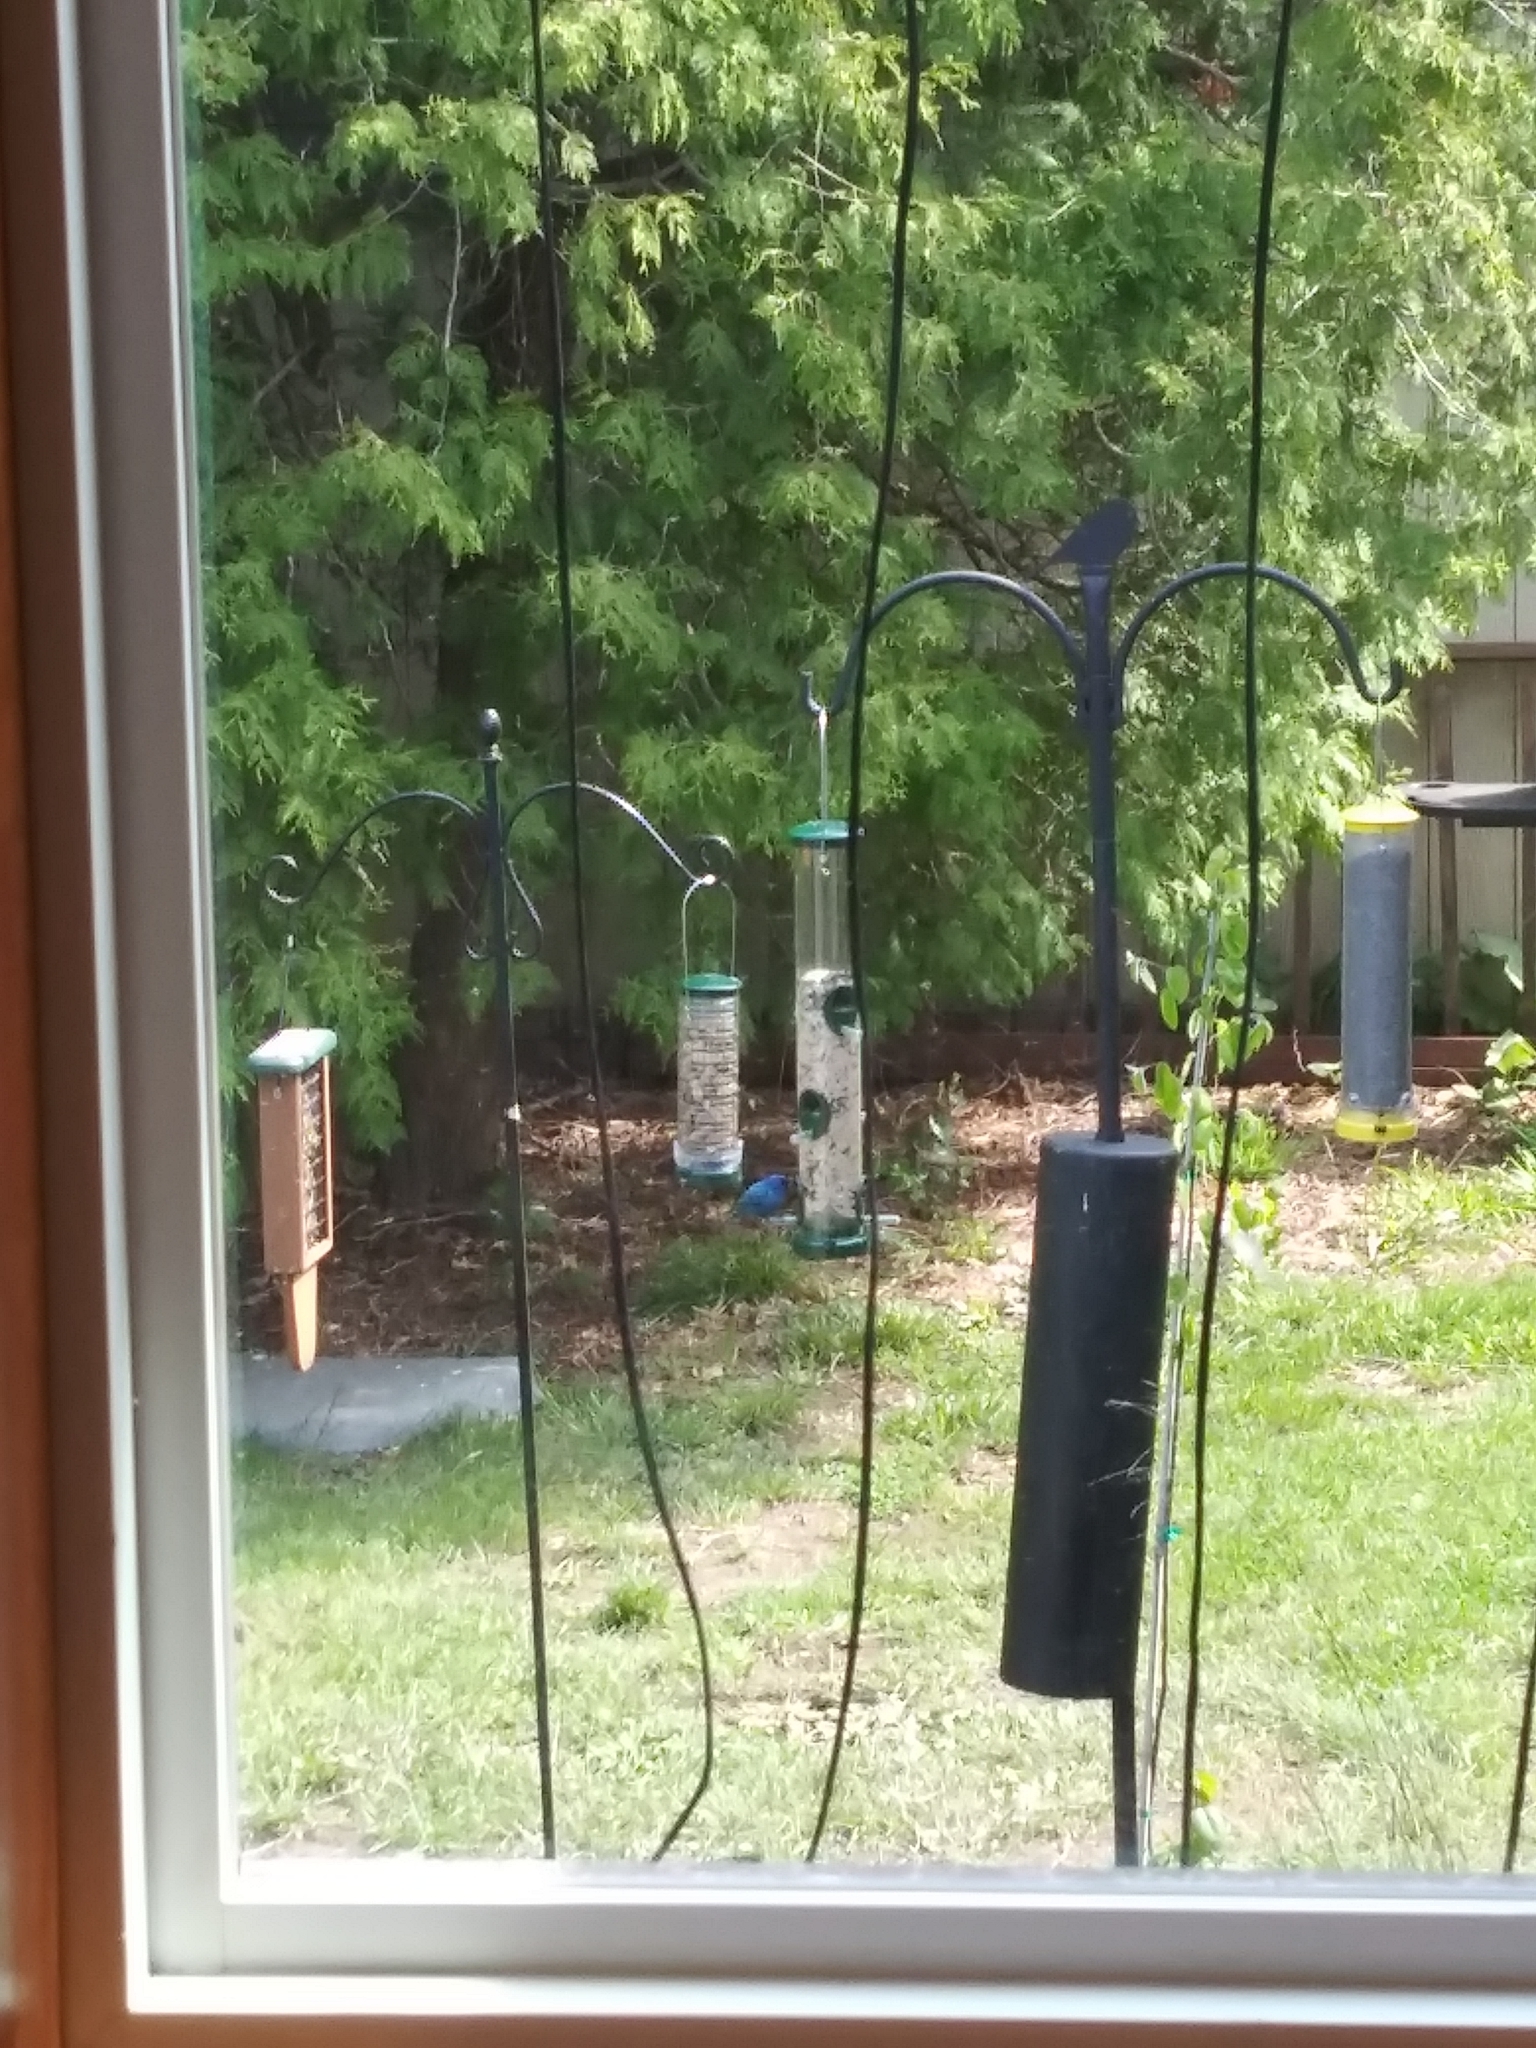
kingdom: Animalia
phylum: Chordata
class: Aves
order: Passeriformes
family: Cardinalidae
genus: Passerina
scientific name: Passerina cyanea
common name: Indigo bunting
